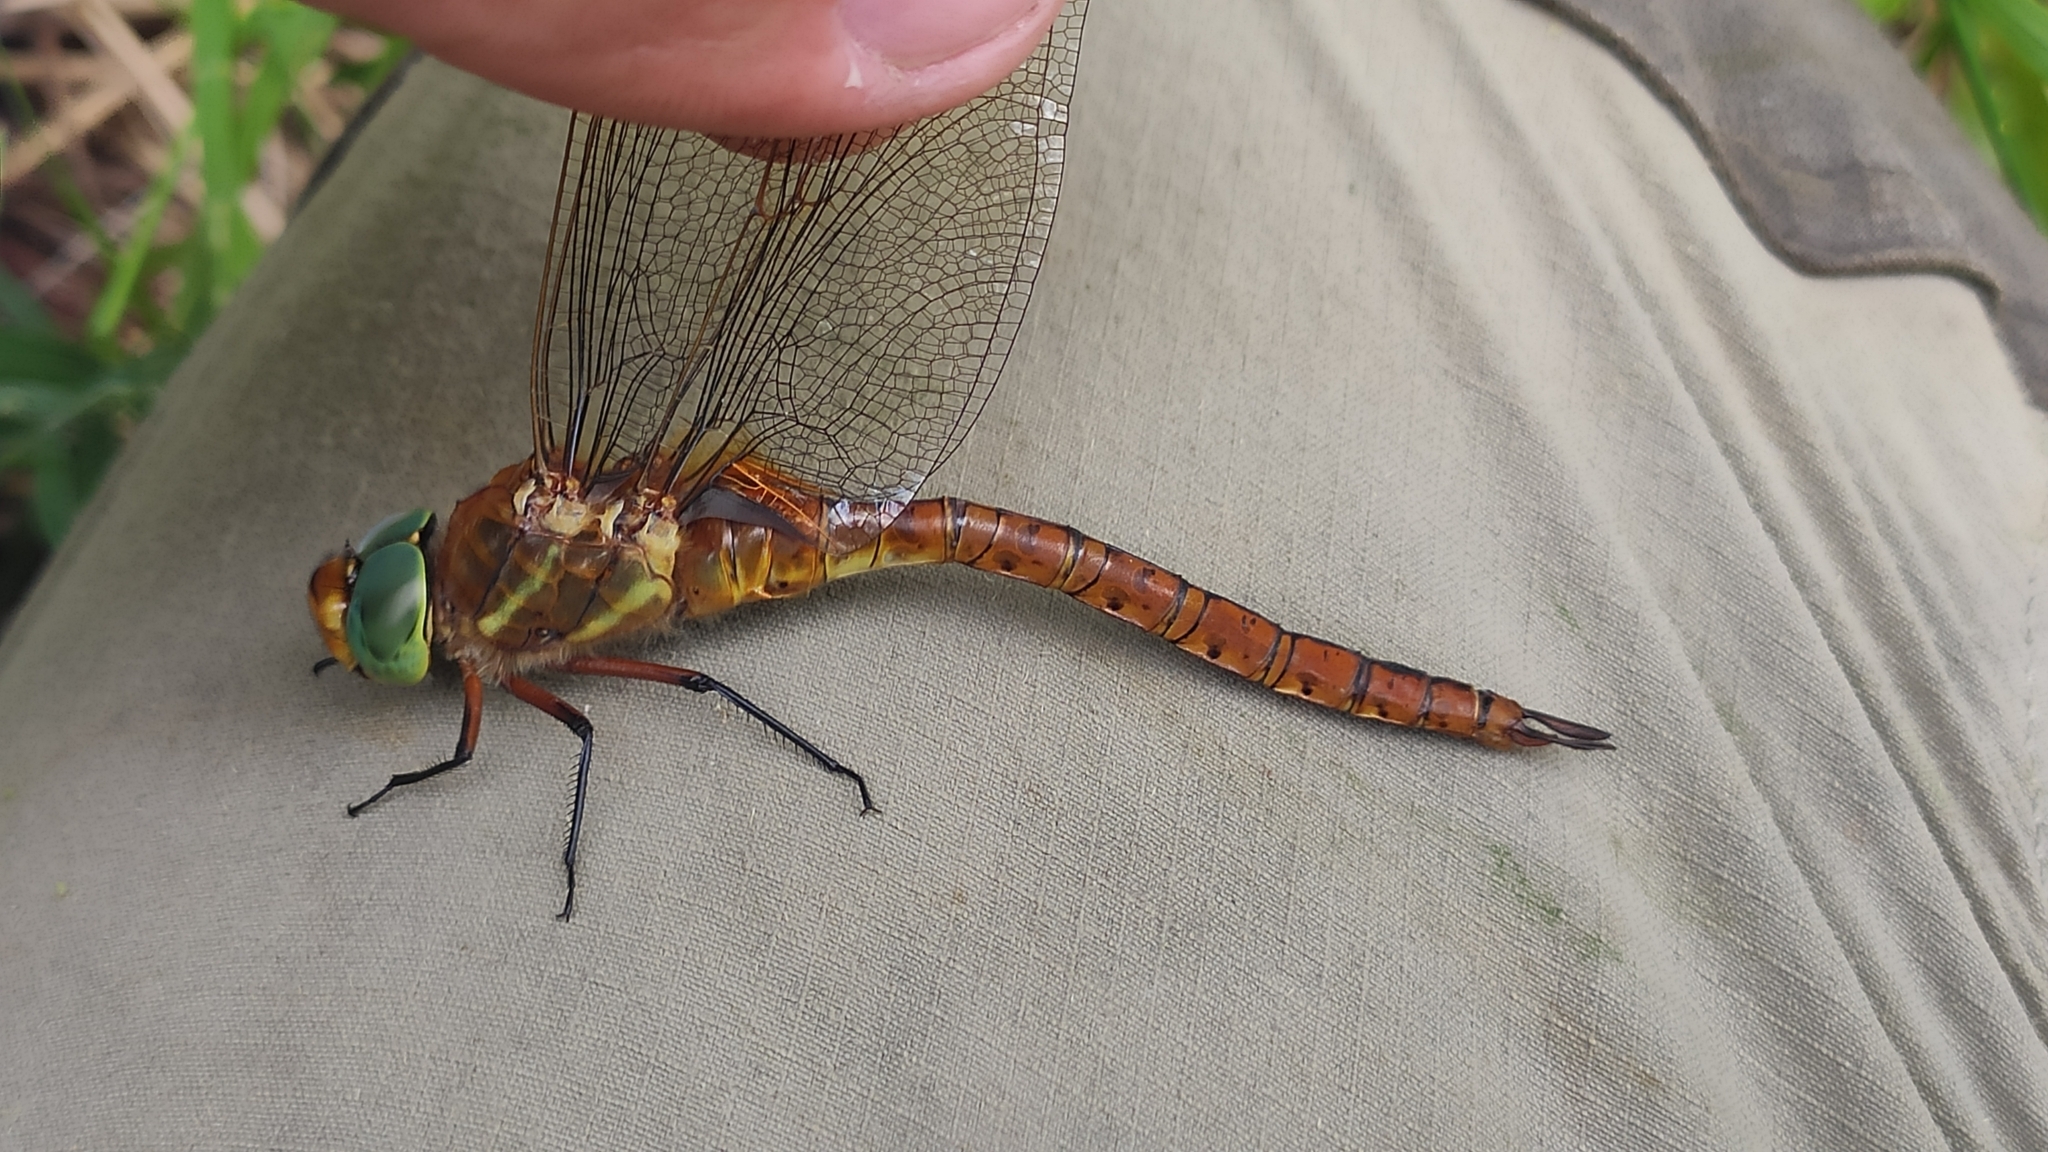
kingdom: Animalia
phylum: Arthropoda
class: Insecta
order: Odonata
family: Aeshnidae
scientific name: Aeshnidae
